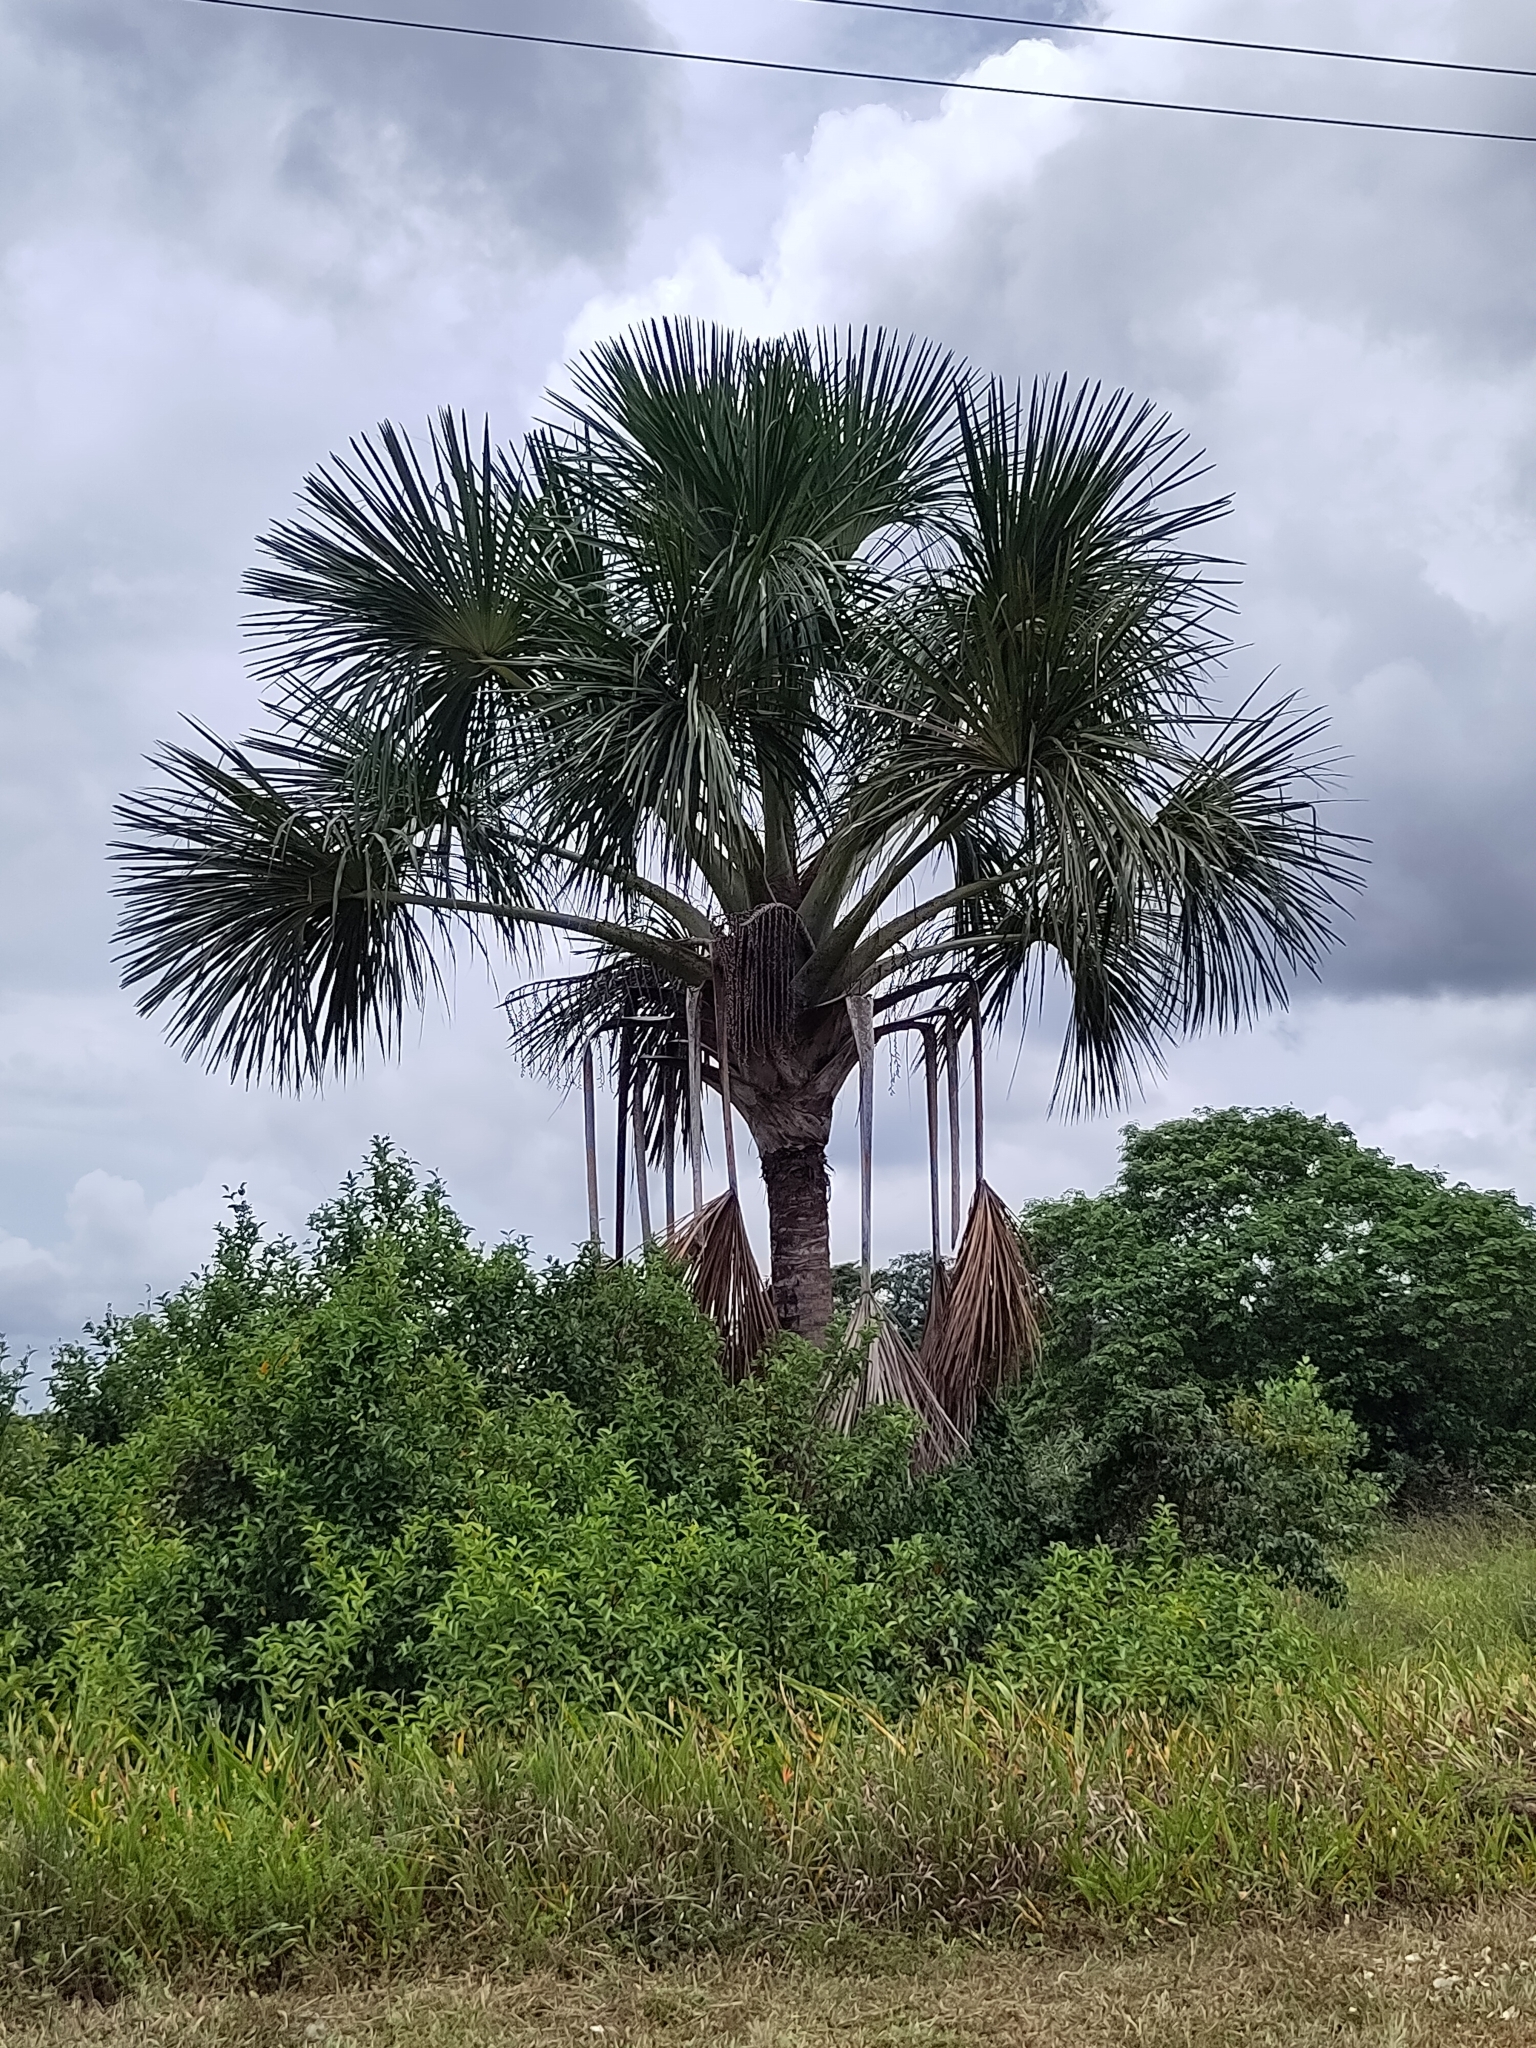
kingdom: Plantae
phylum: Tracheophyta
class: Liliopsida
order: Arecales
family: Arecaceae
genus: Mauritia
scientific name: Mauritia flexuosa
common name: Tree-of-life
